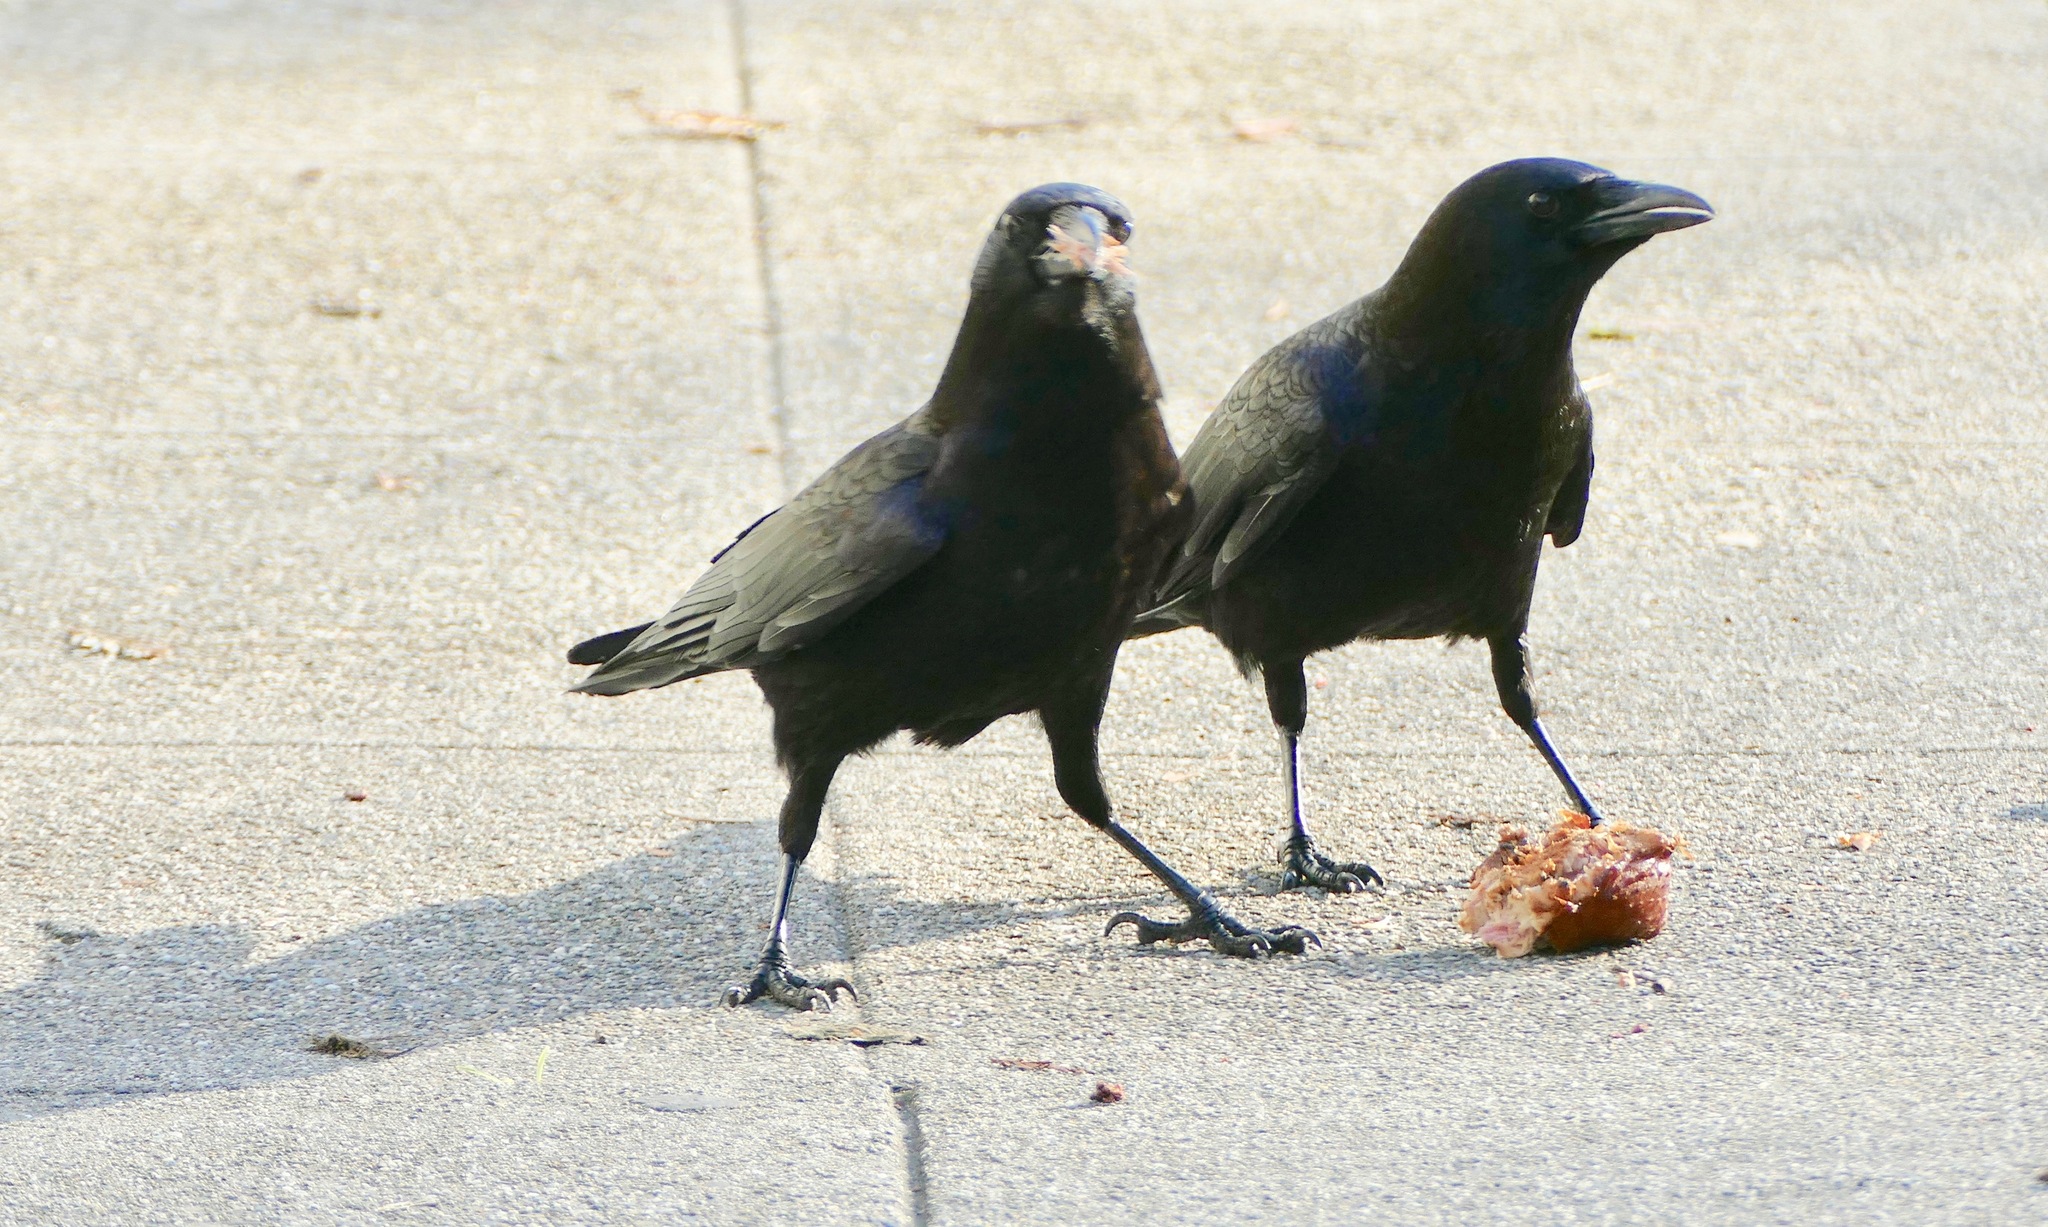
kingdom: Animalia
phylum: Chordata
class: Aves
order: Passeriformes
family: Corvidae
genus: Corvus
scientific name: Corvus brachyrhynchos
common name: American crow
